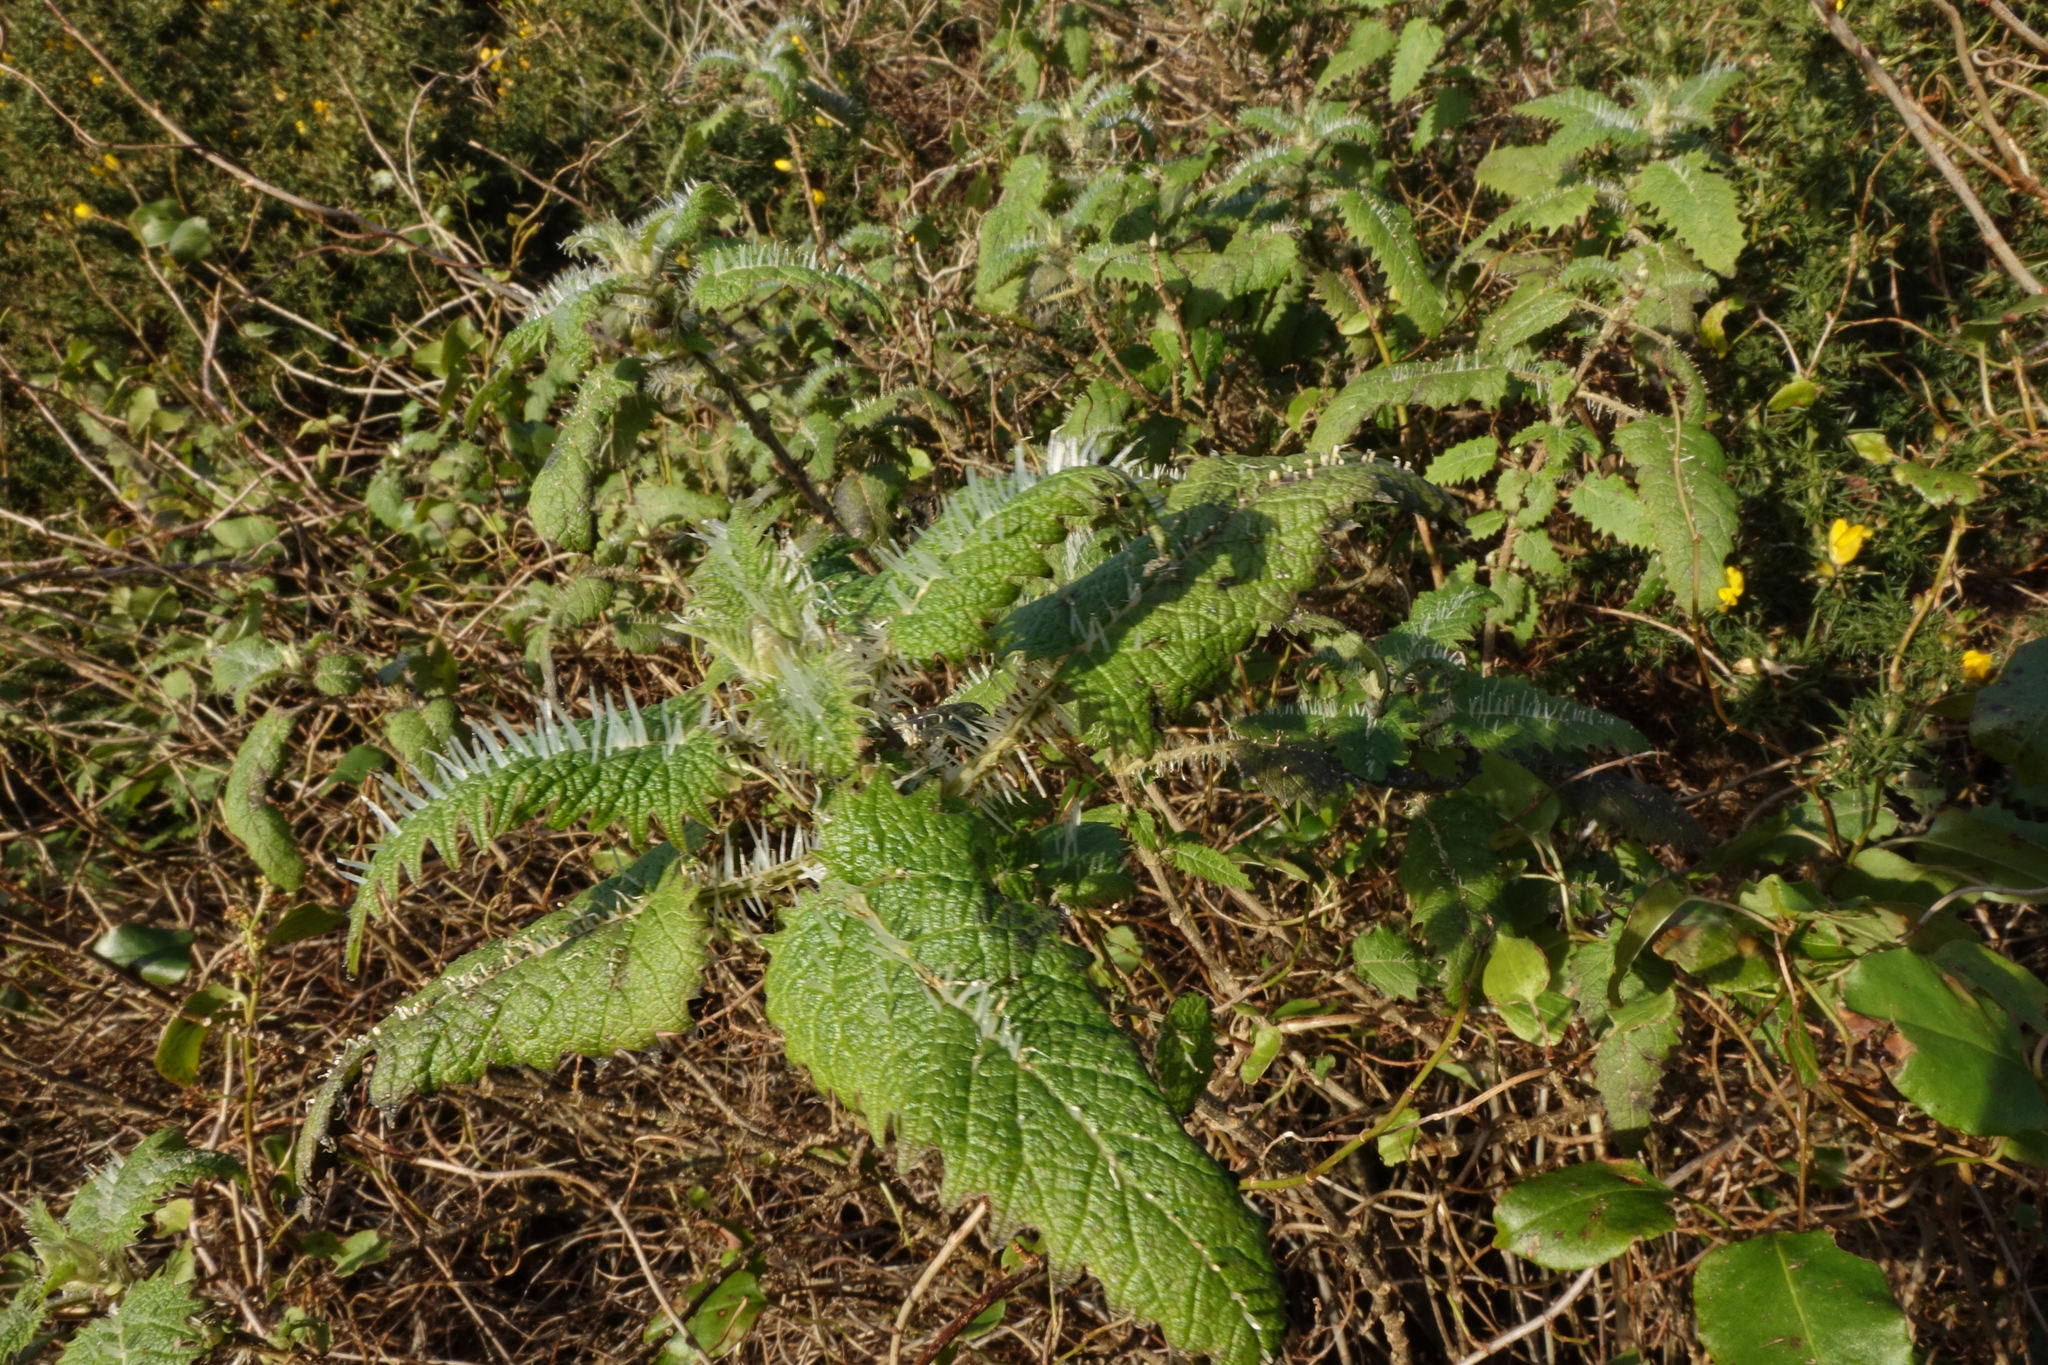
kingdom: Plantae
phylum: Tracheophyta
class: Magnoliopsida
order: Rosales
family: Urticaceae
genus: Urtica
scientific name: Urtica ferox
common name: Tree nettle
